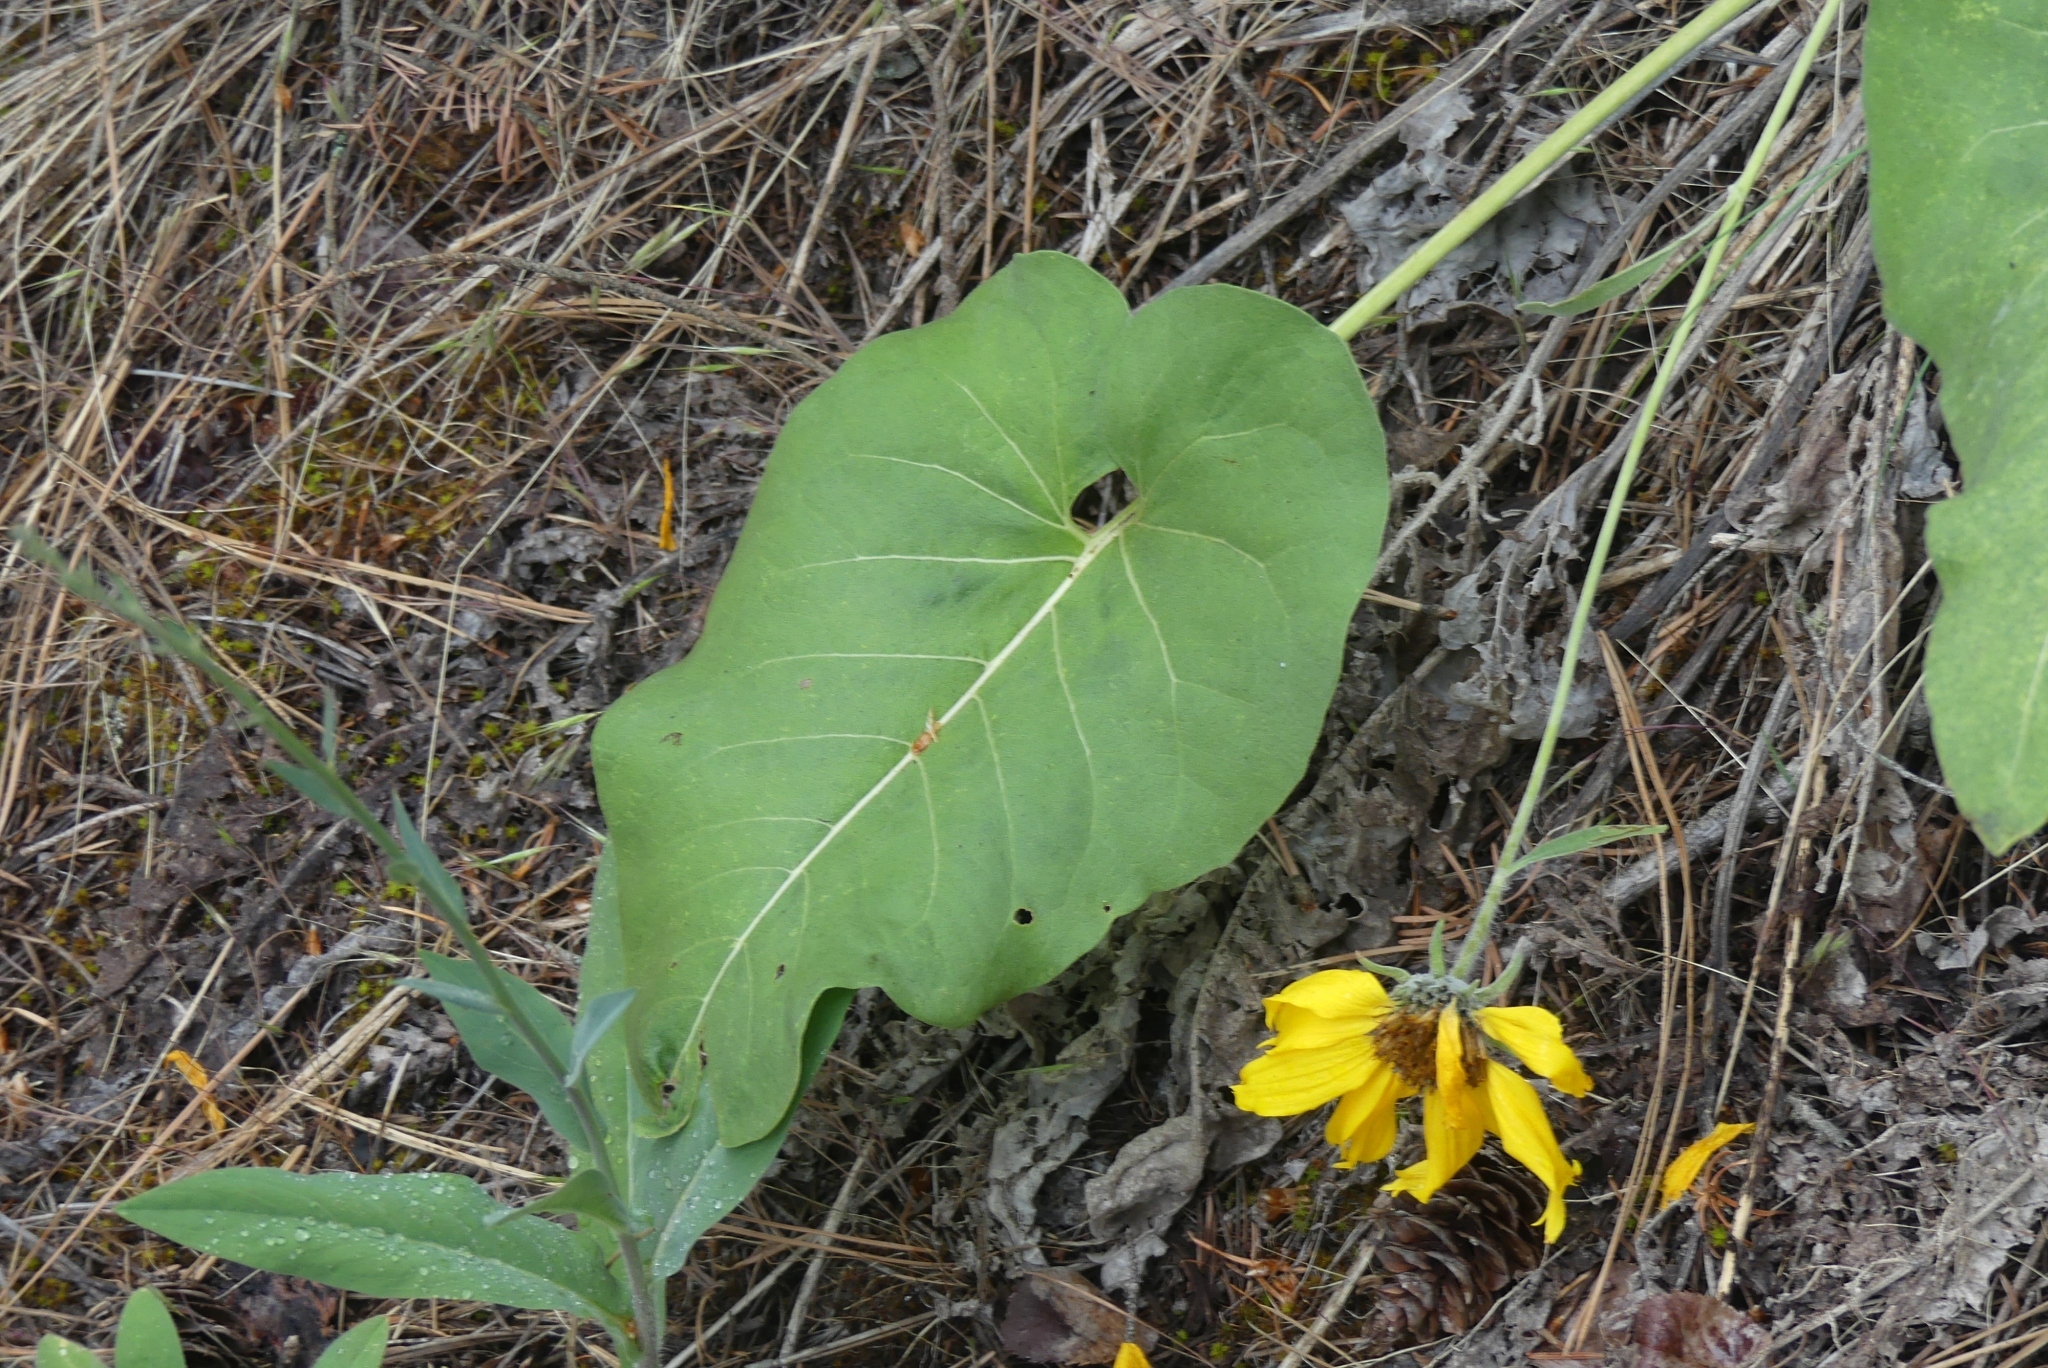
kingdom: Plantae
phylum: Tracheophyta
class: Magnoliopsida
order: Asterales
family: Asteraceae
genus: Wyethia
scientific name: Wyethia sagittata
